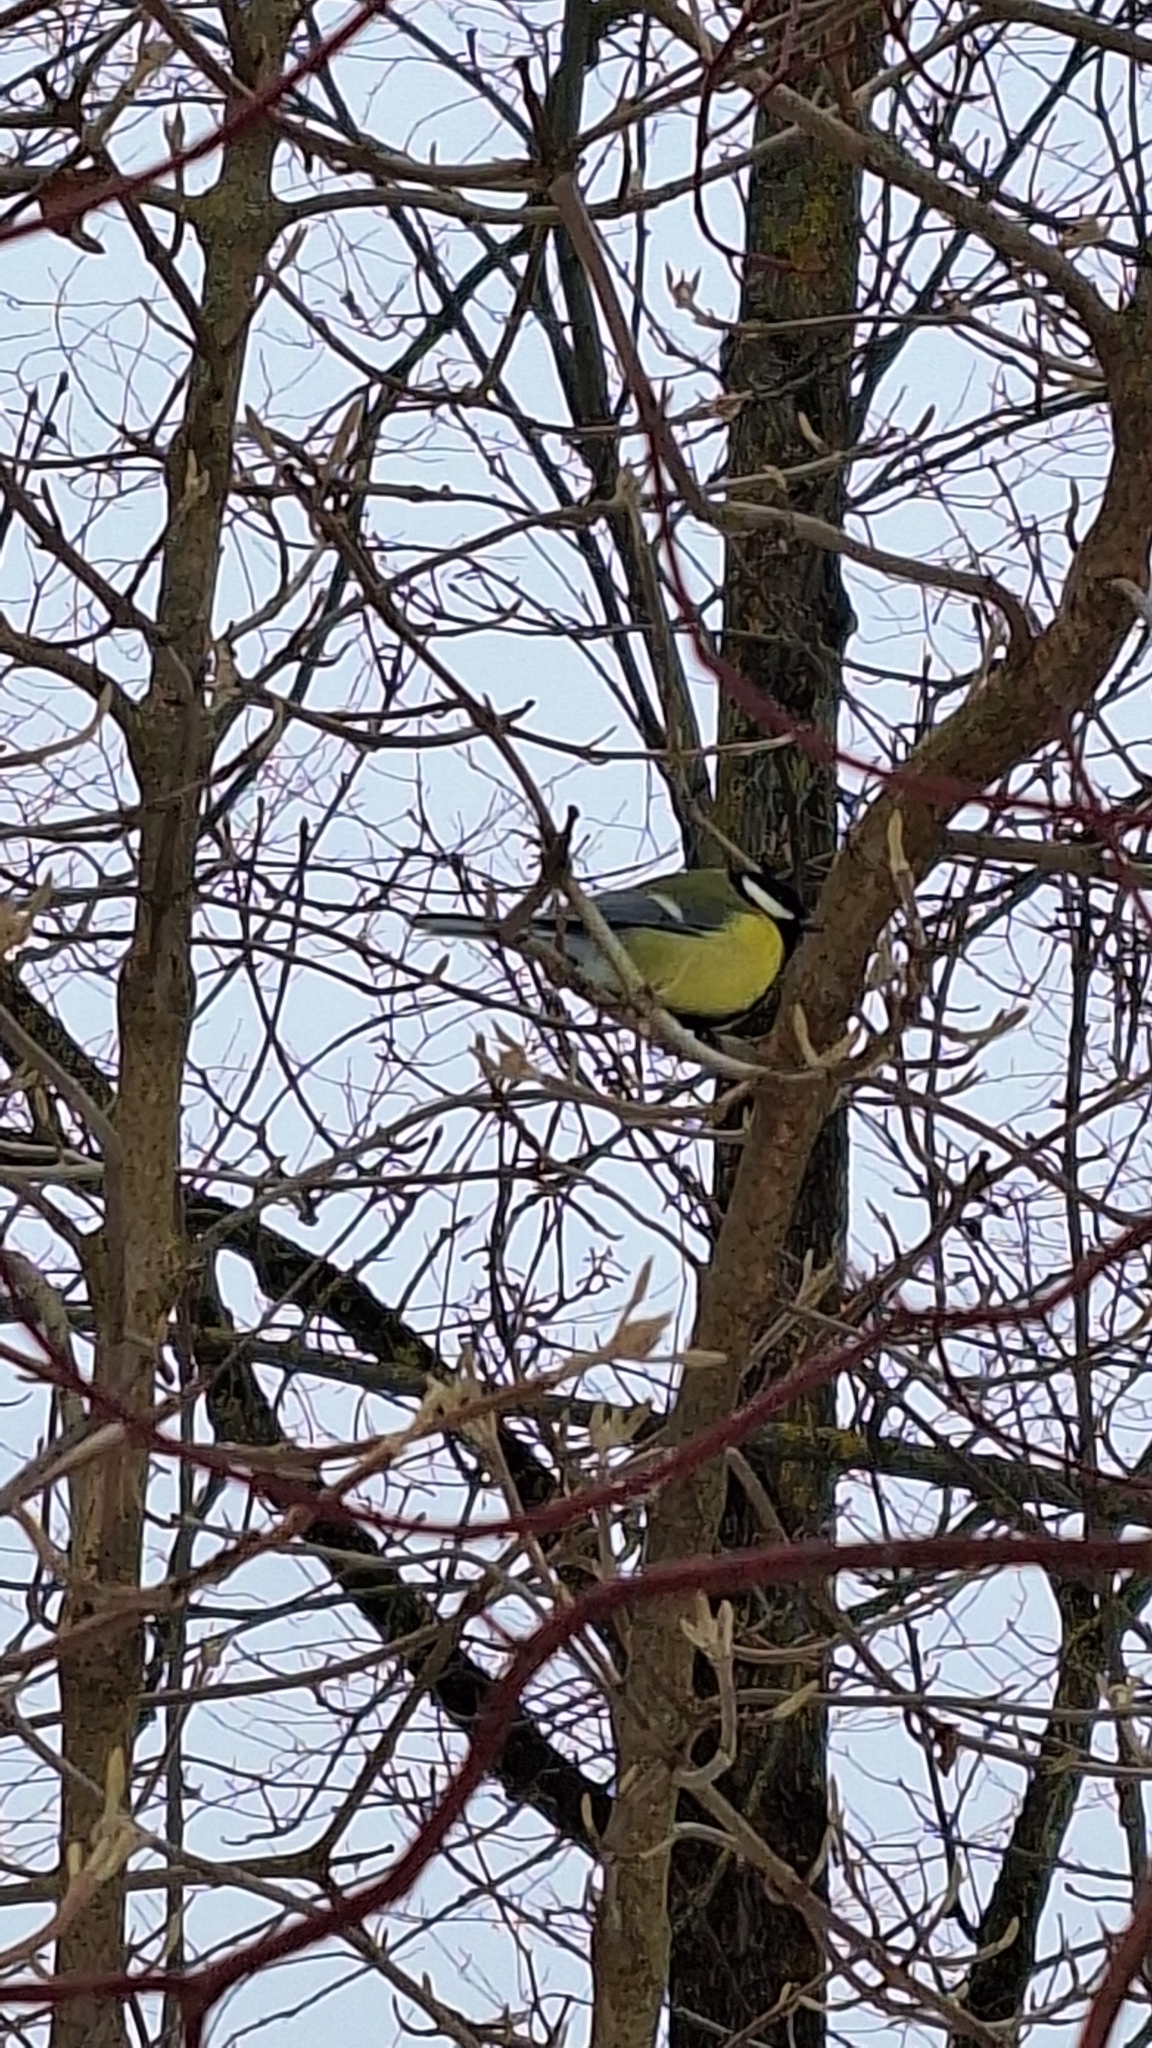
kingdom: Animalia
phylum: Chordata
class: Aves
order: Passeriformes
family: Paridae
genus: Parus
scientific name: Parus major
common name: Great tit
